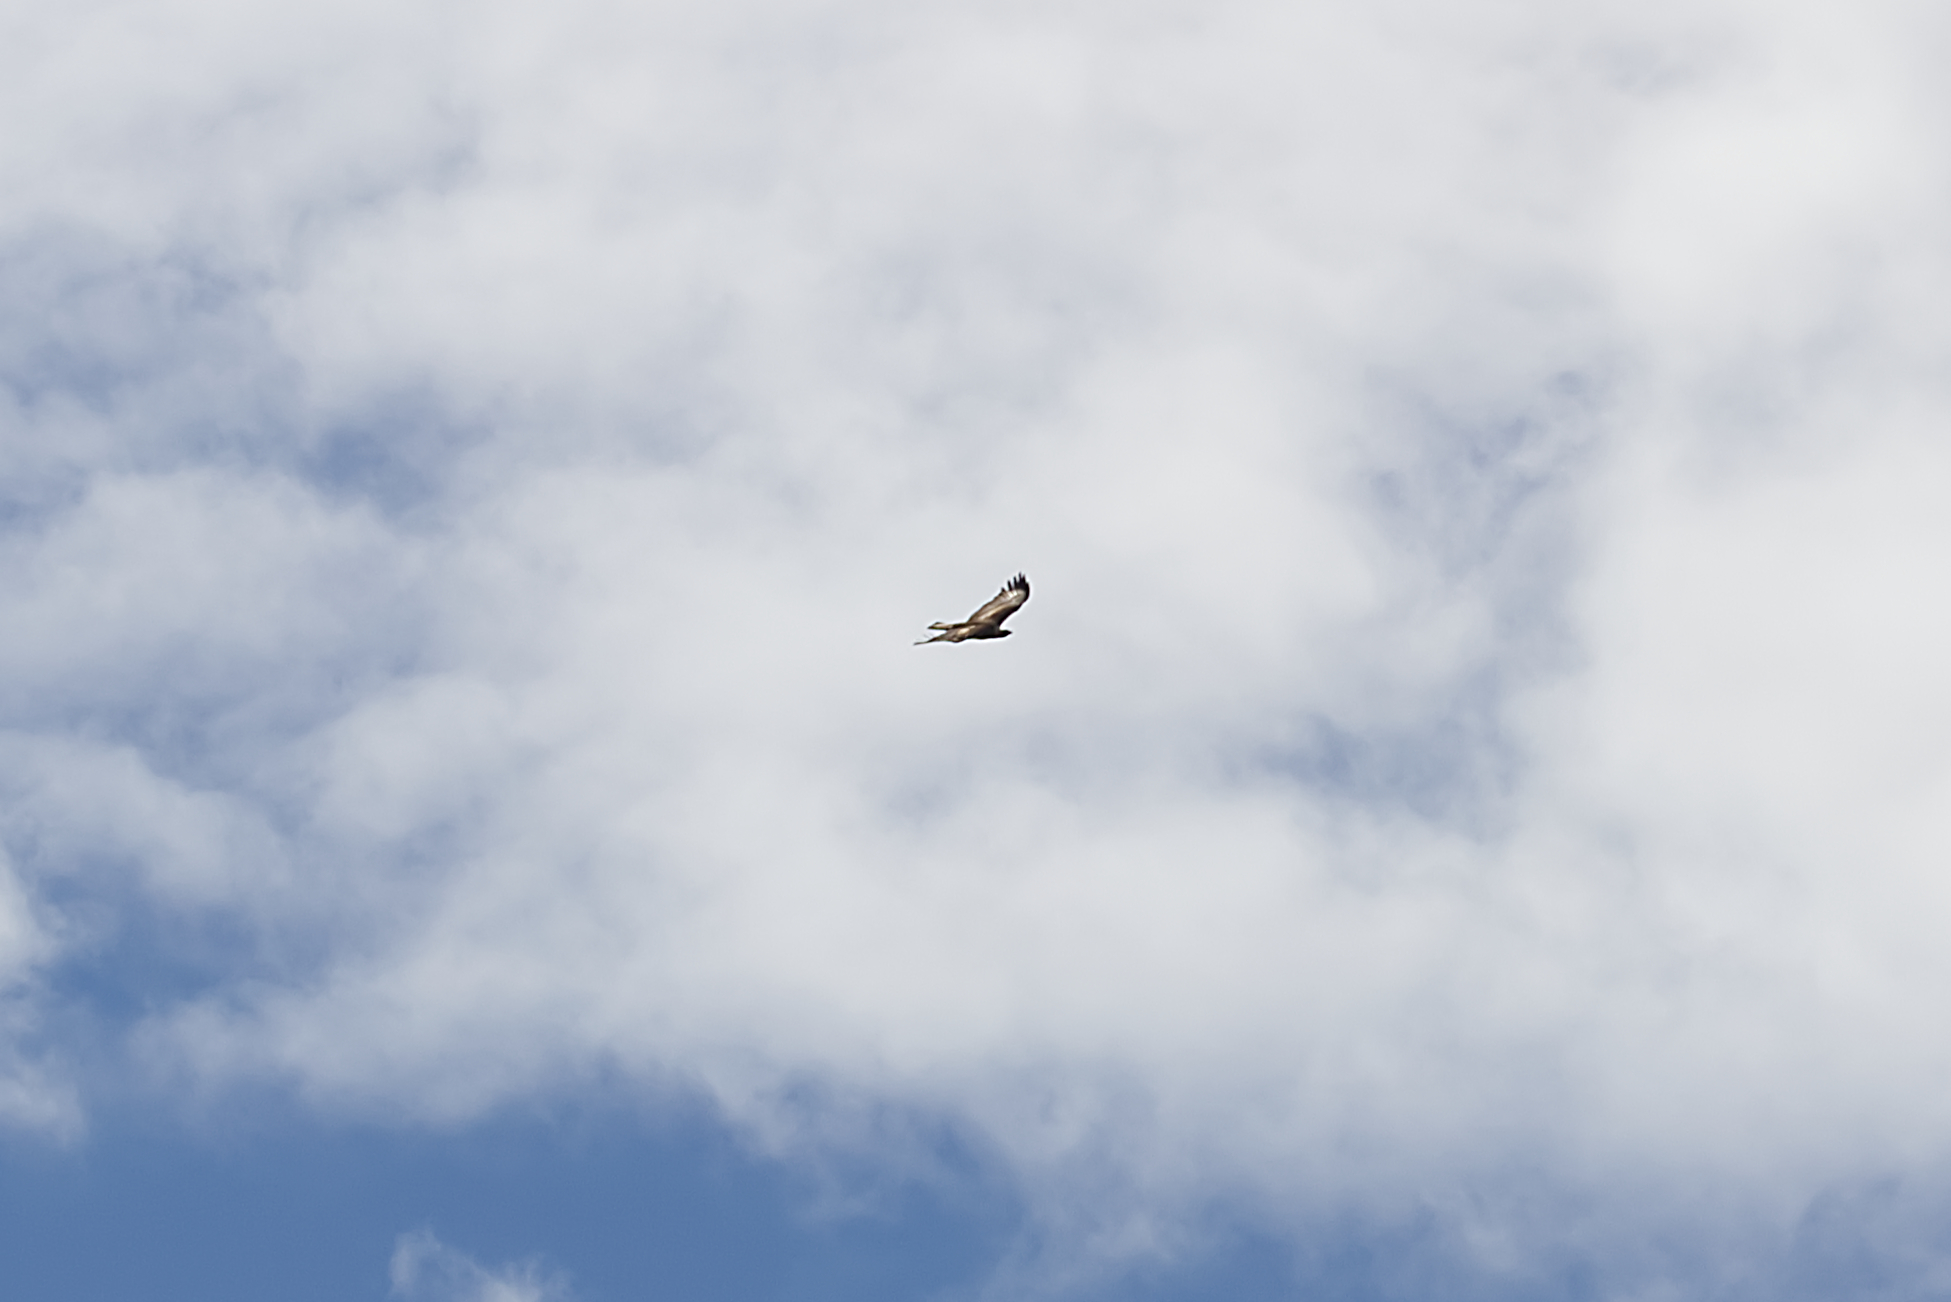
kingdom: Animalia
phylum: Chordata
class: Aves
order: Accipitriformes
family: Accipitridae
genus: Aquila
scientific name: Aquila chrysaetos
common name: Golden eagle
